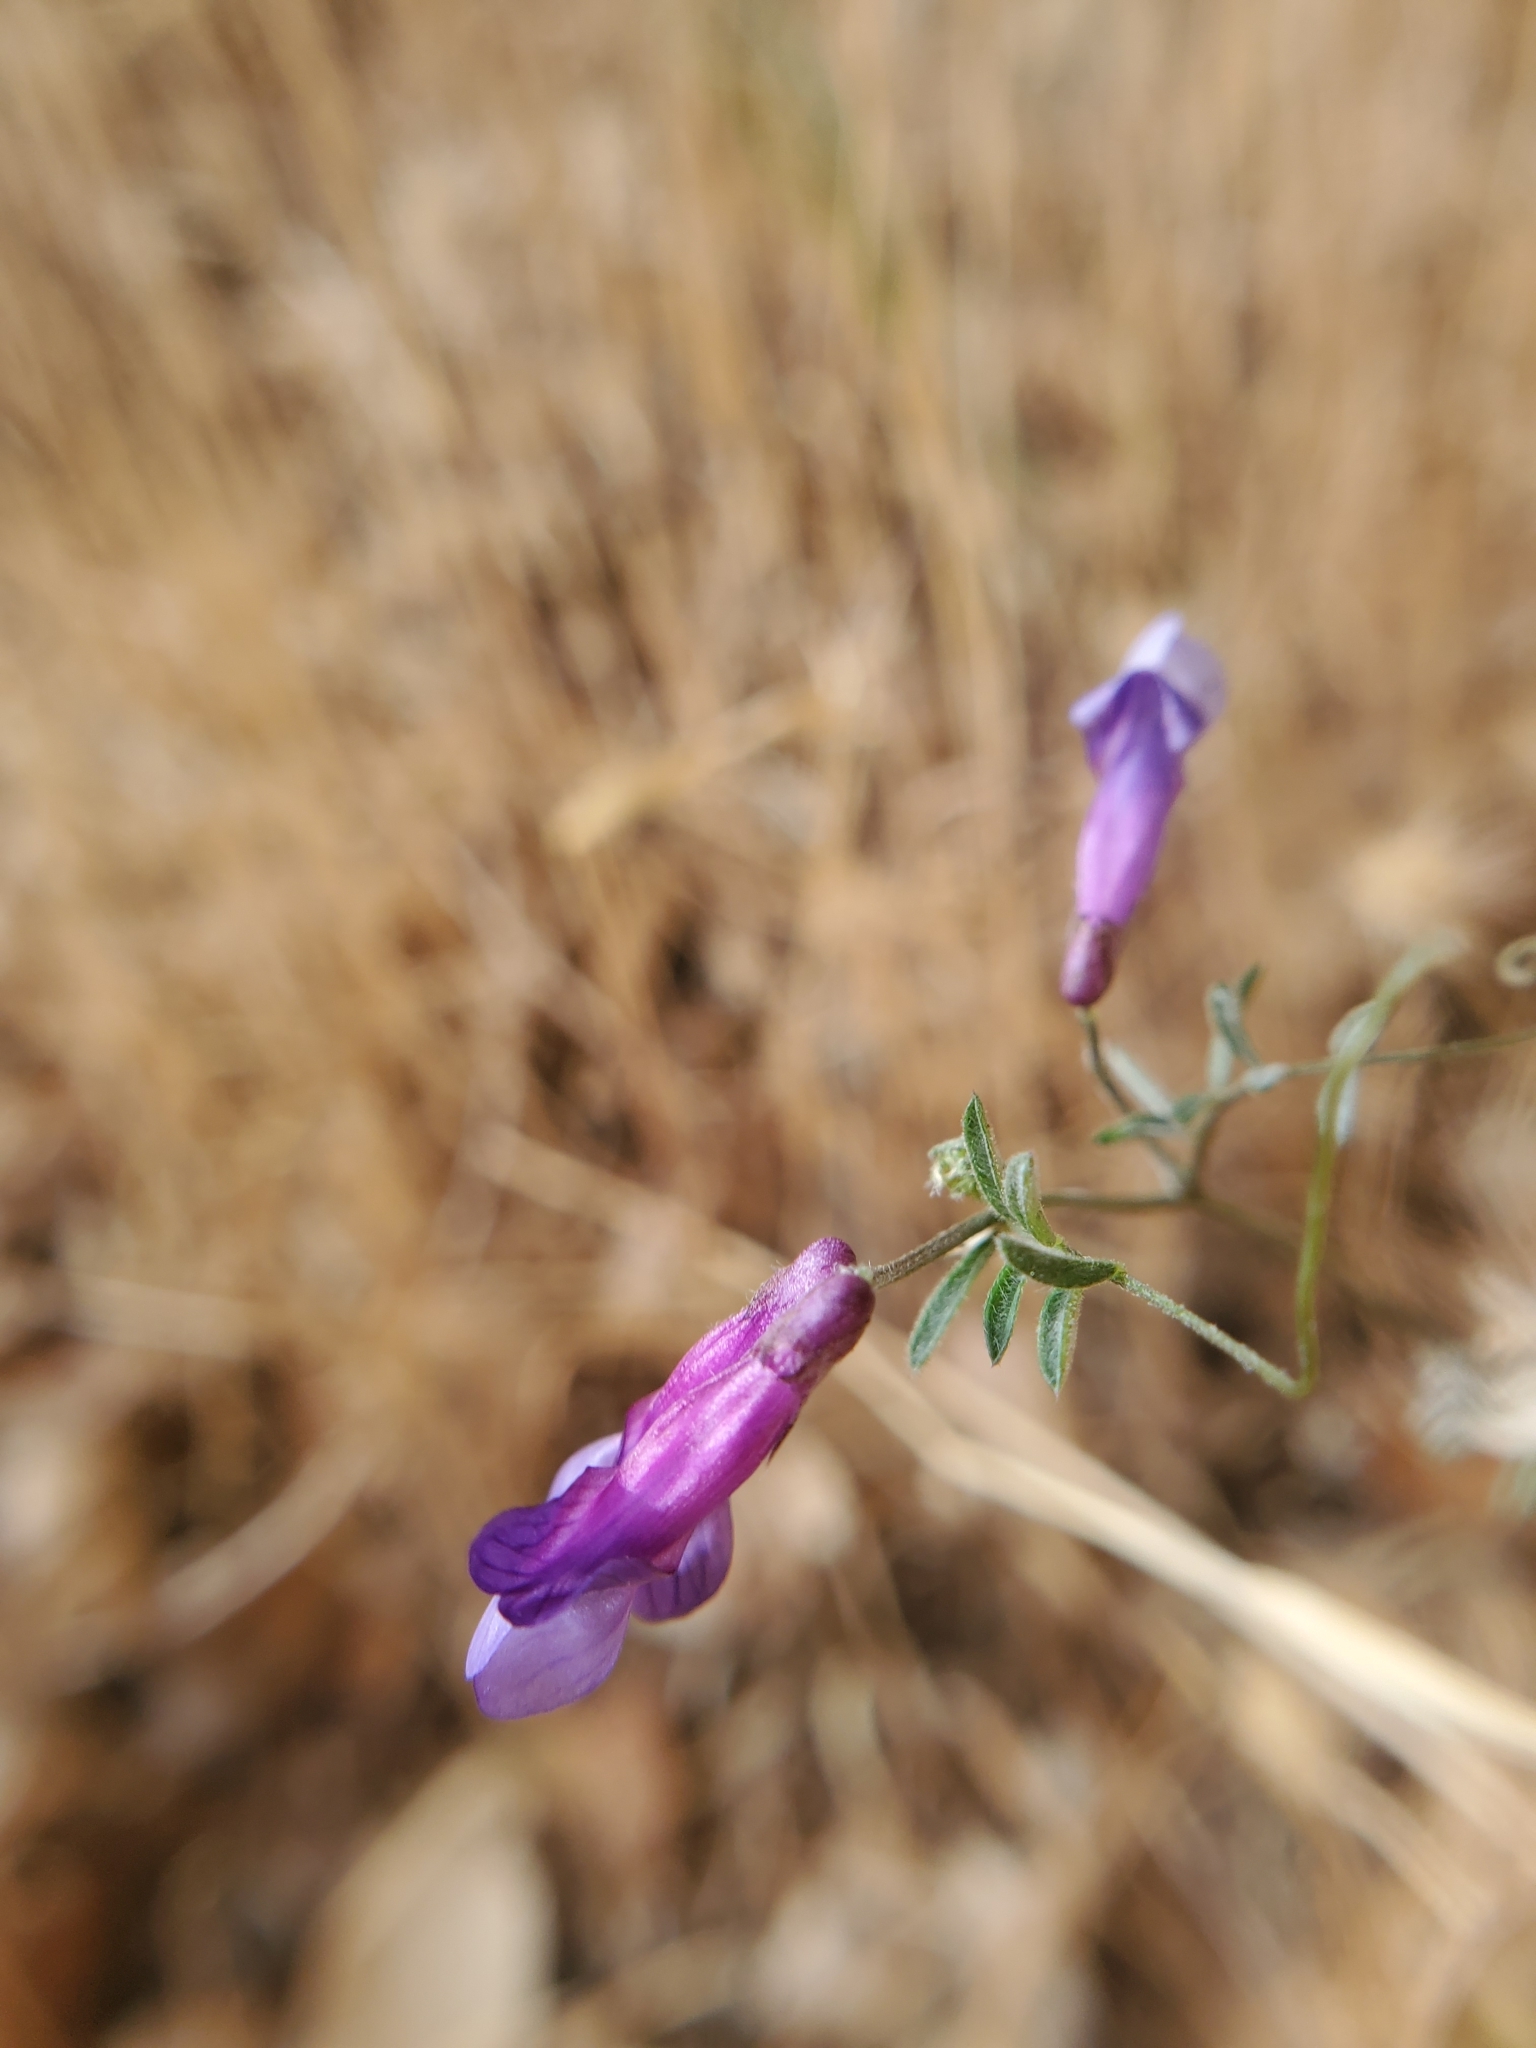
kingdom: Plantae
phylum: Tracheophyta
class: Magnoliopsida
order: Fabales
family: Fabaceae
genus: Vicia
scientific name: Vicia villosa
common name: Fodder vetch
